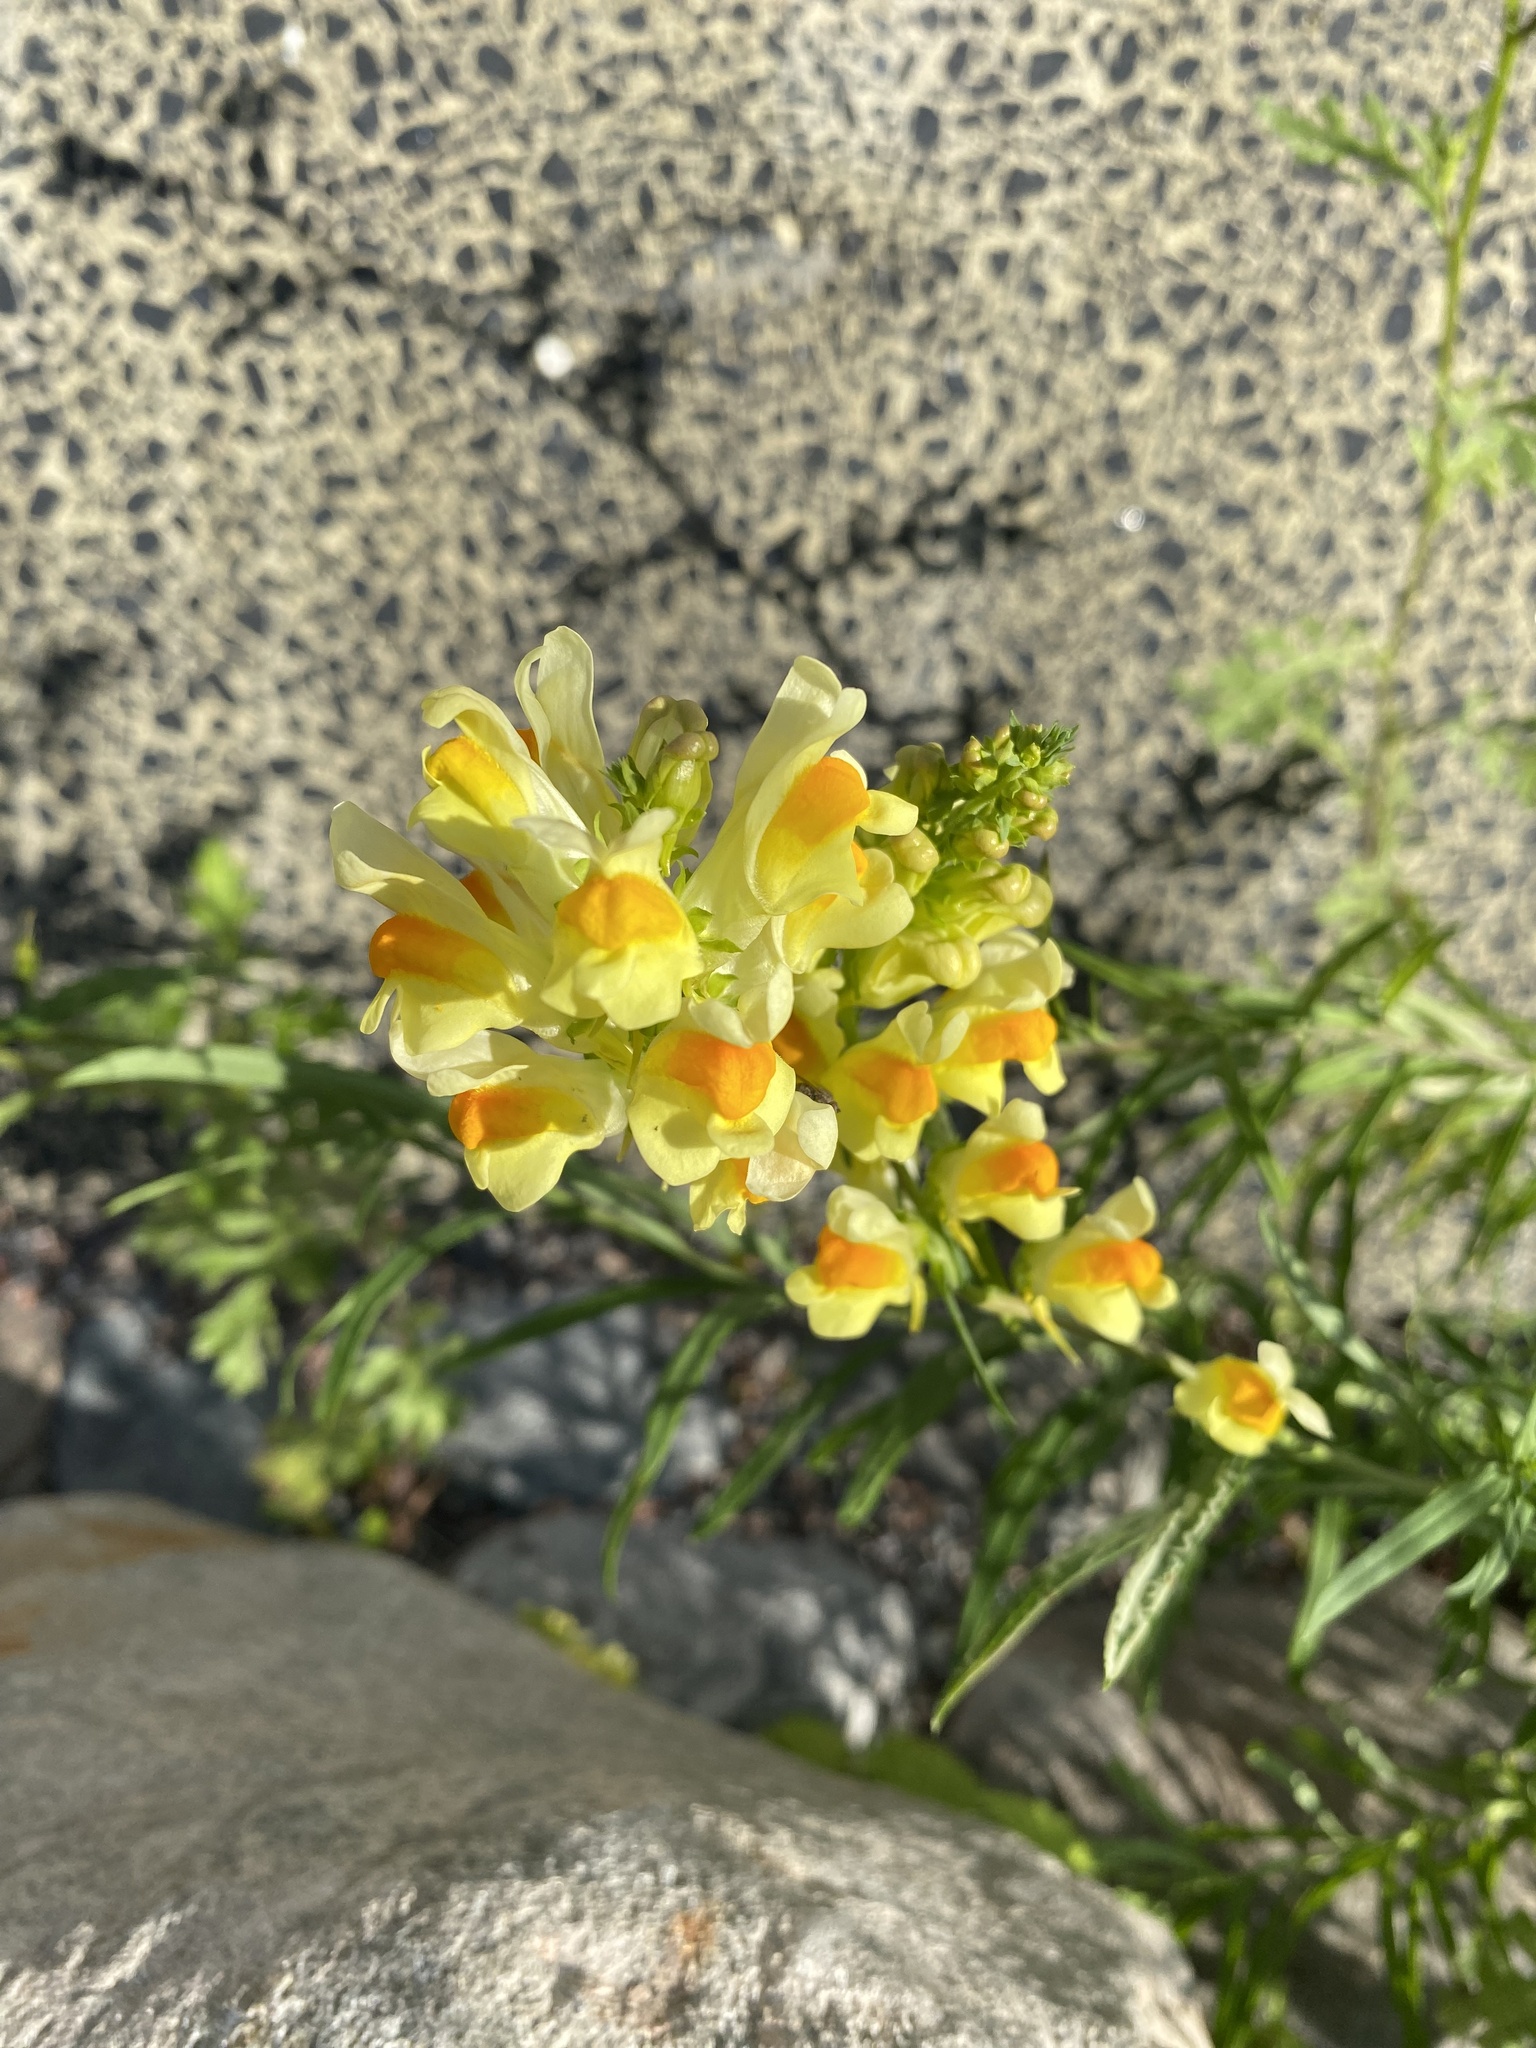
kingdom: Plantae
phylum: Tracheophyta
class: Magnoliopsida
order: Lamiales
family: Plantaginaceae
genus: Linaria
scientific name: Linaria vulgaris
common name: Butter and eggs
